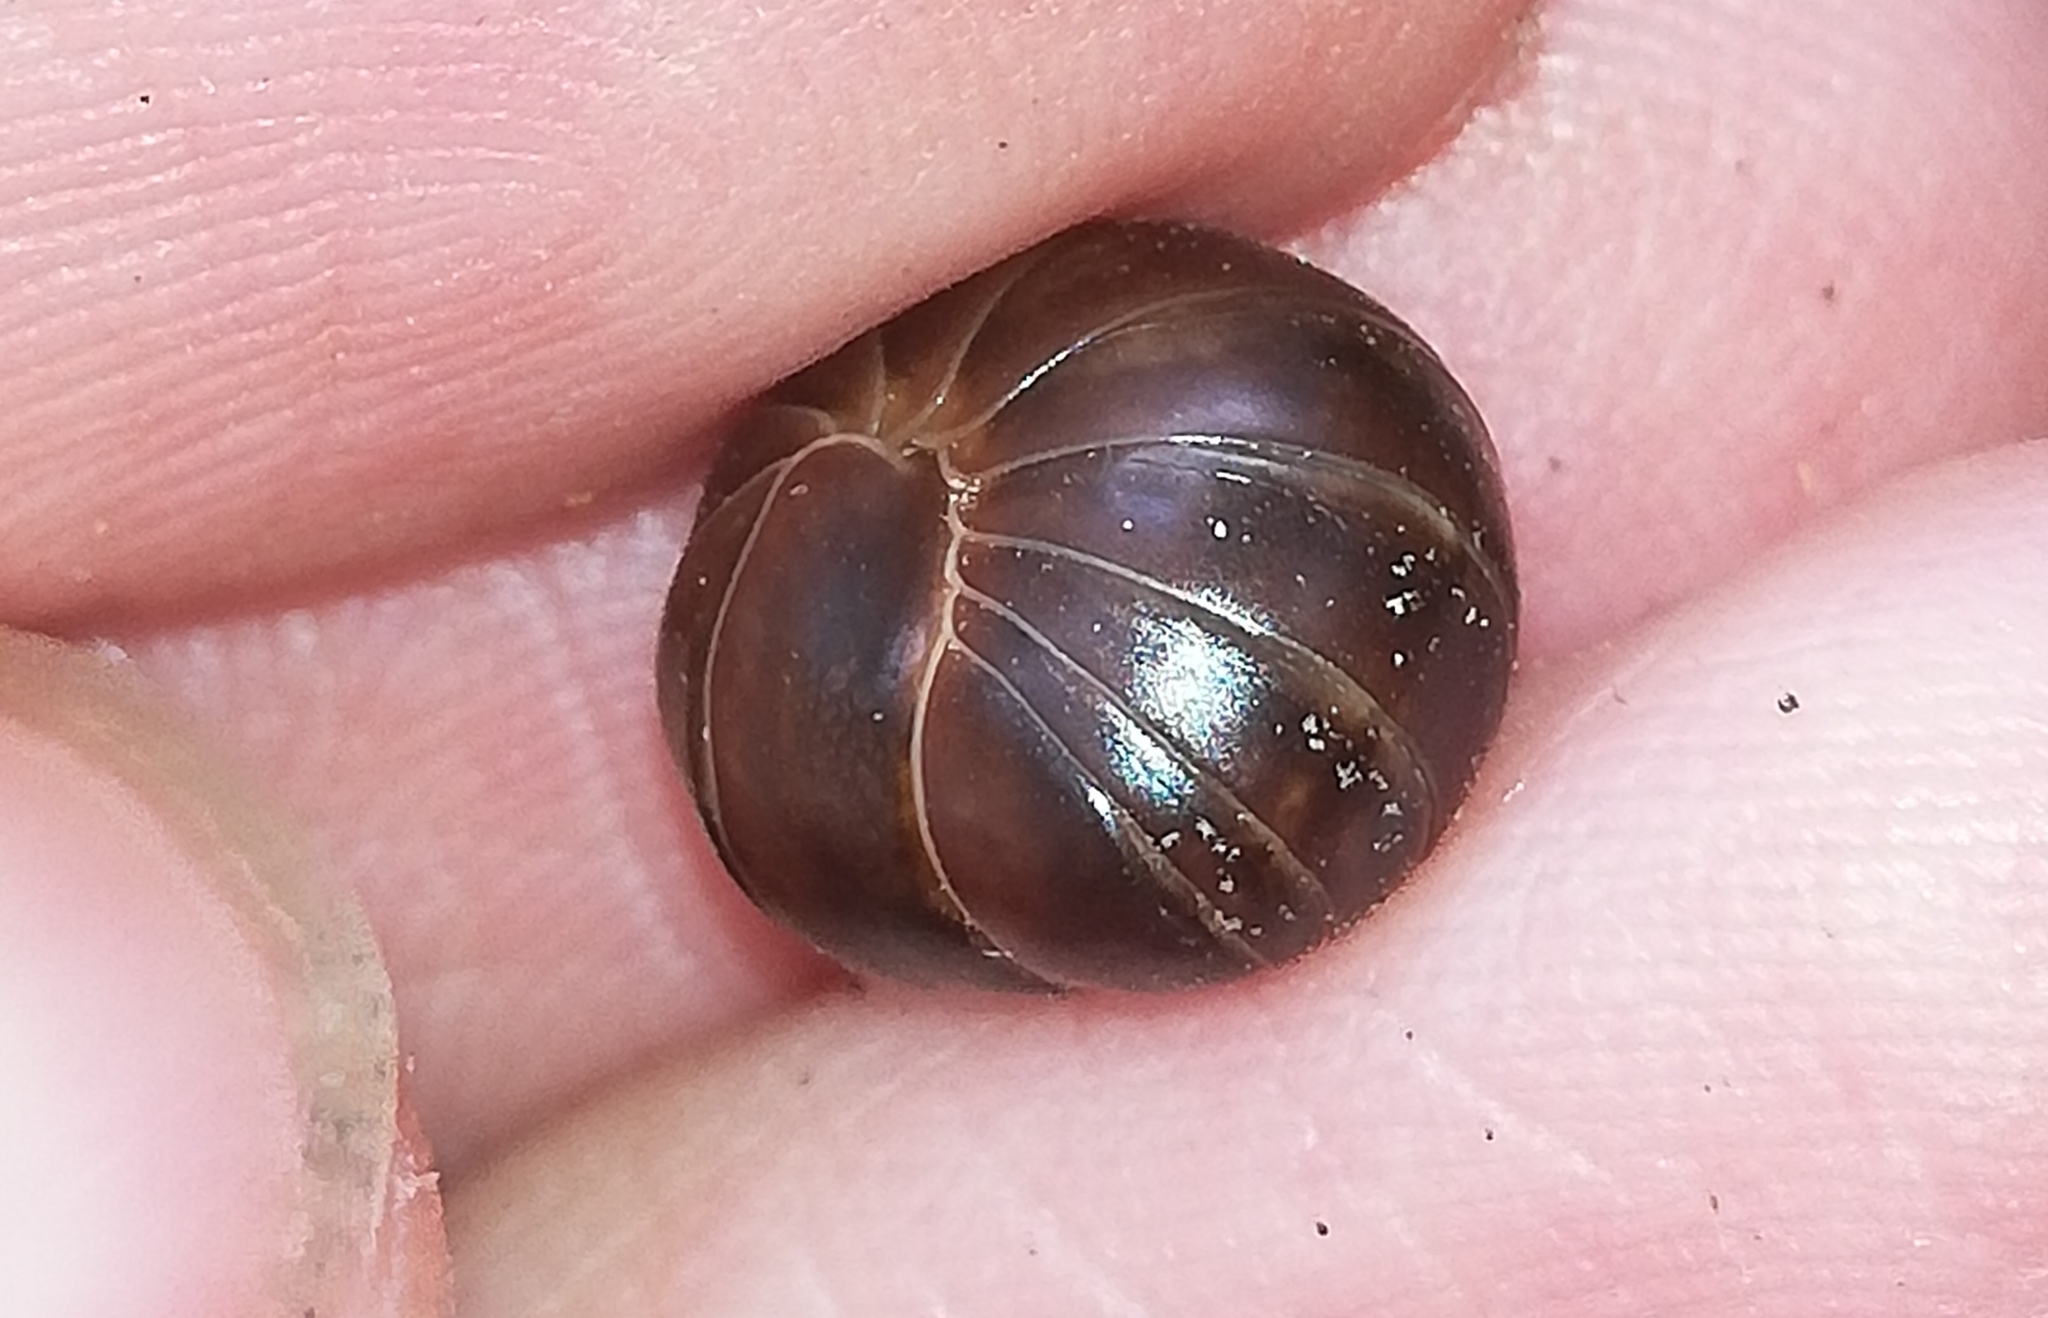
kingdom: Animalia
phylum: Arthropoda
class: Diplopoda
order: Glomerida
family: Glomeridae
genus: Glomeris
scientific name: Glomeris klugii
